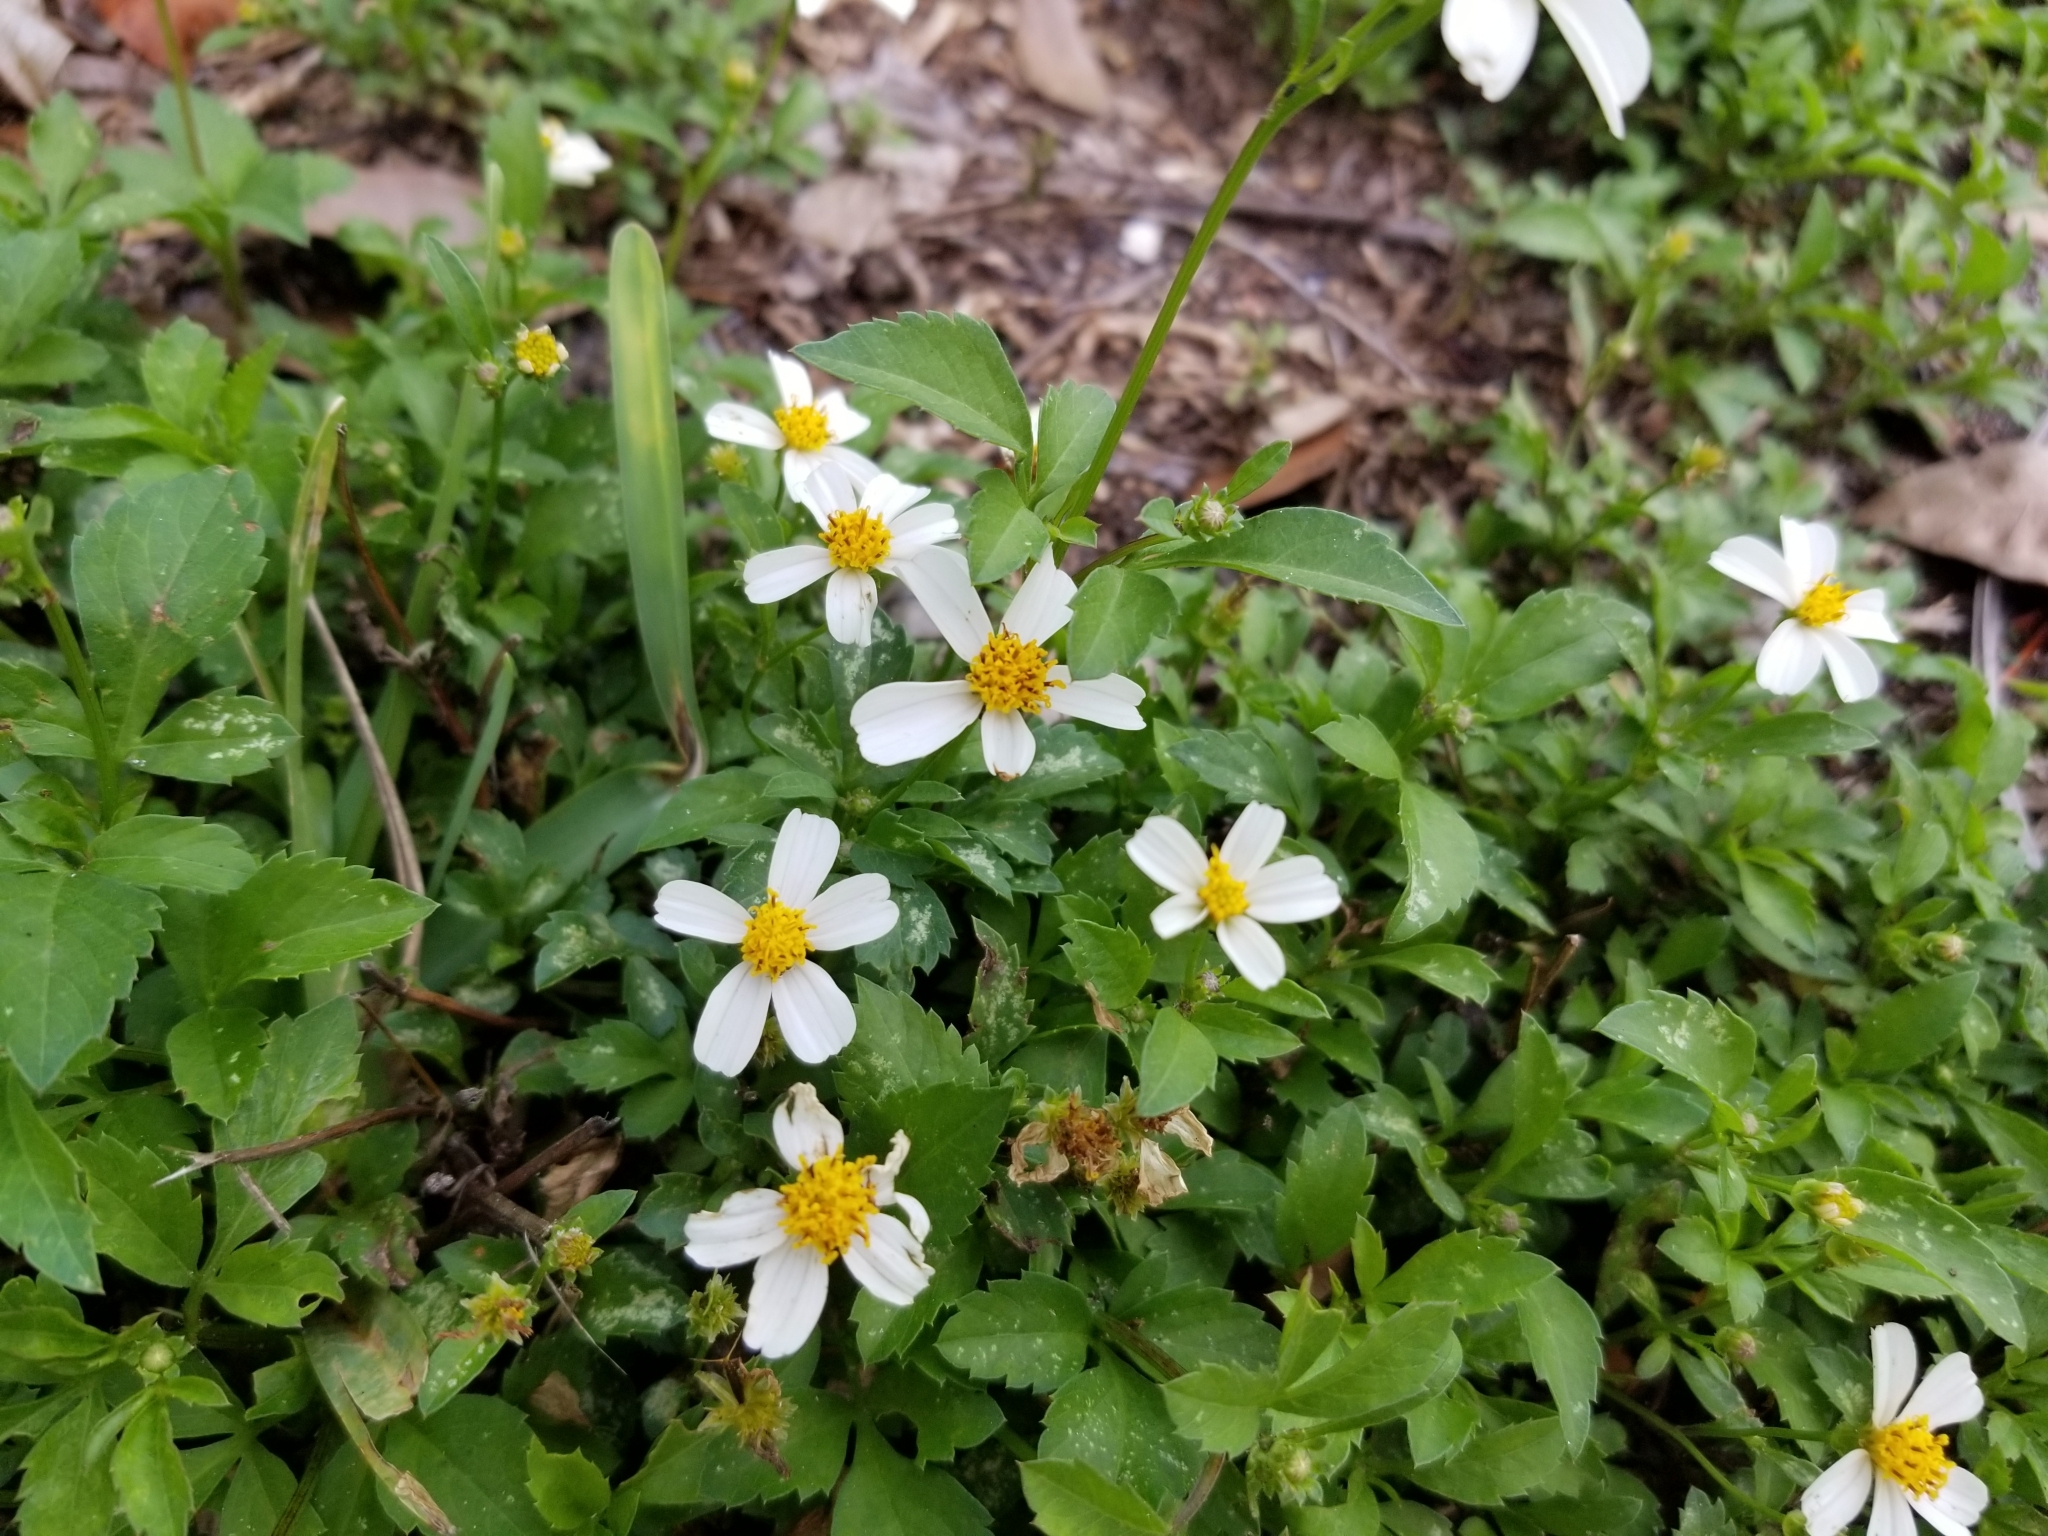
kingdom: Plantae
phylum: Tracheophyta
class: Magnoliopsida
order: Asterales
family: Asteraceae
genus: Bidens
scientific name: Bidens alba
